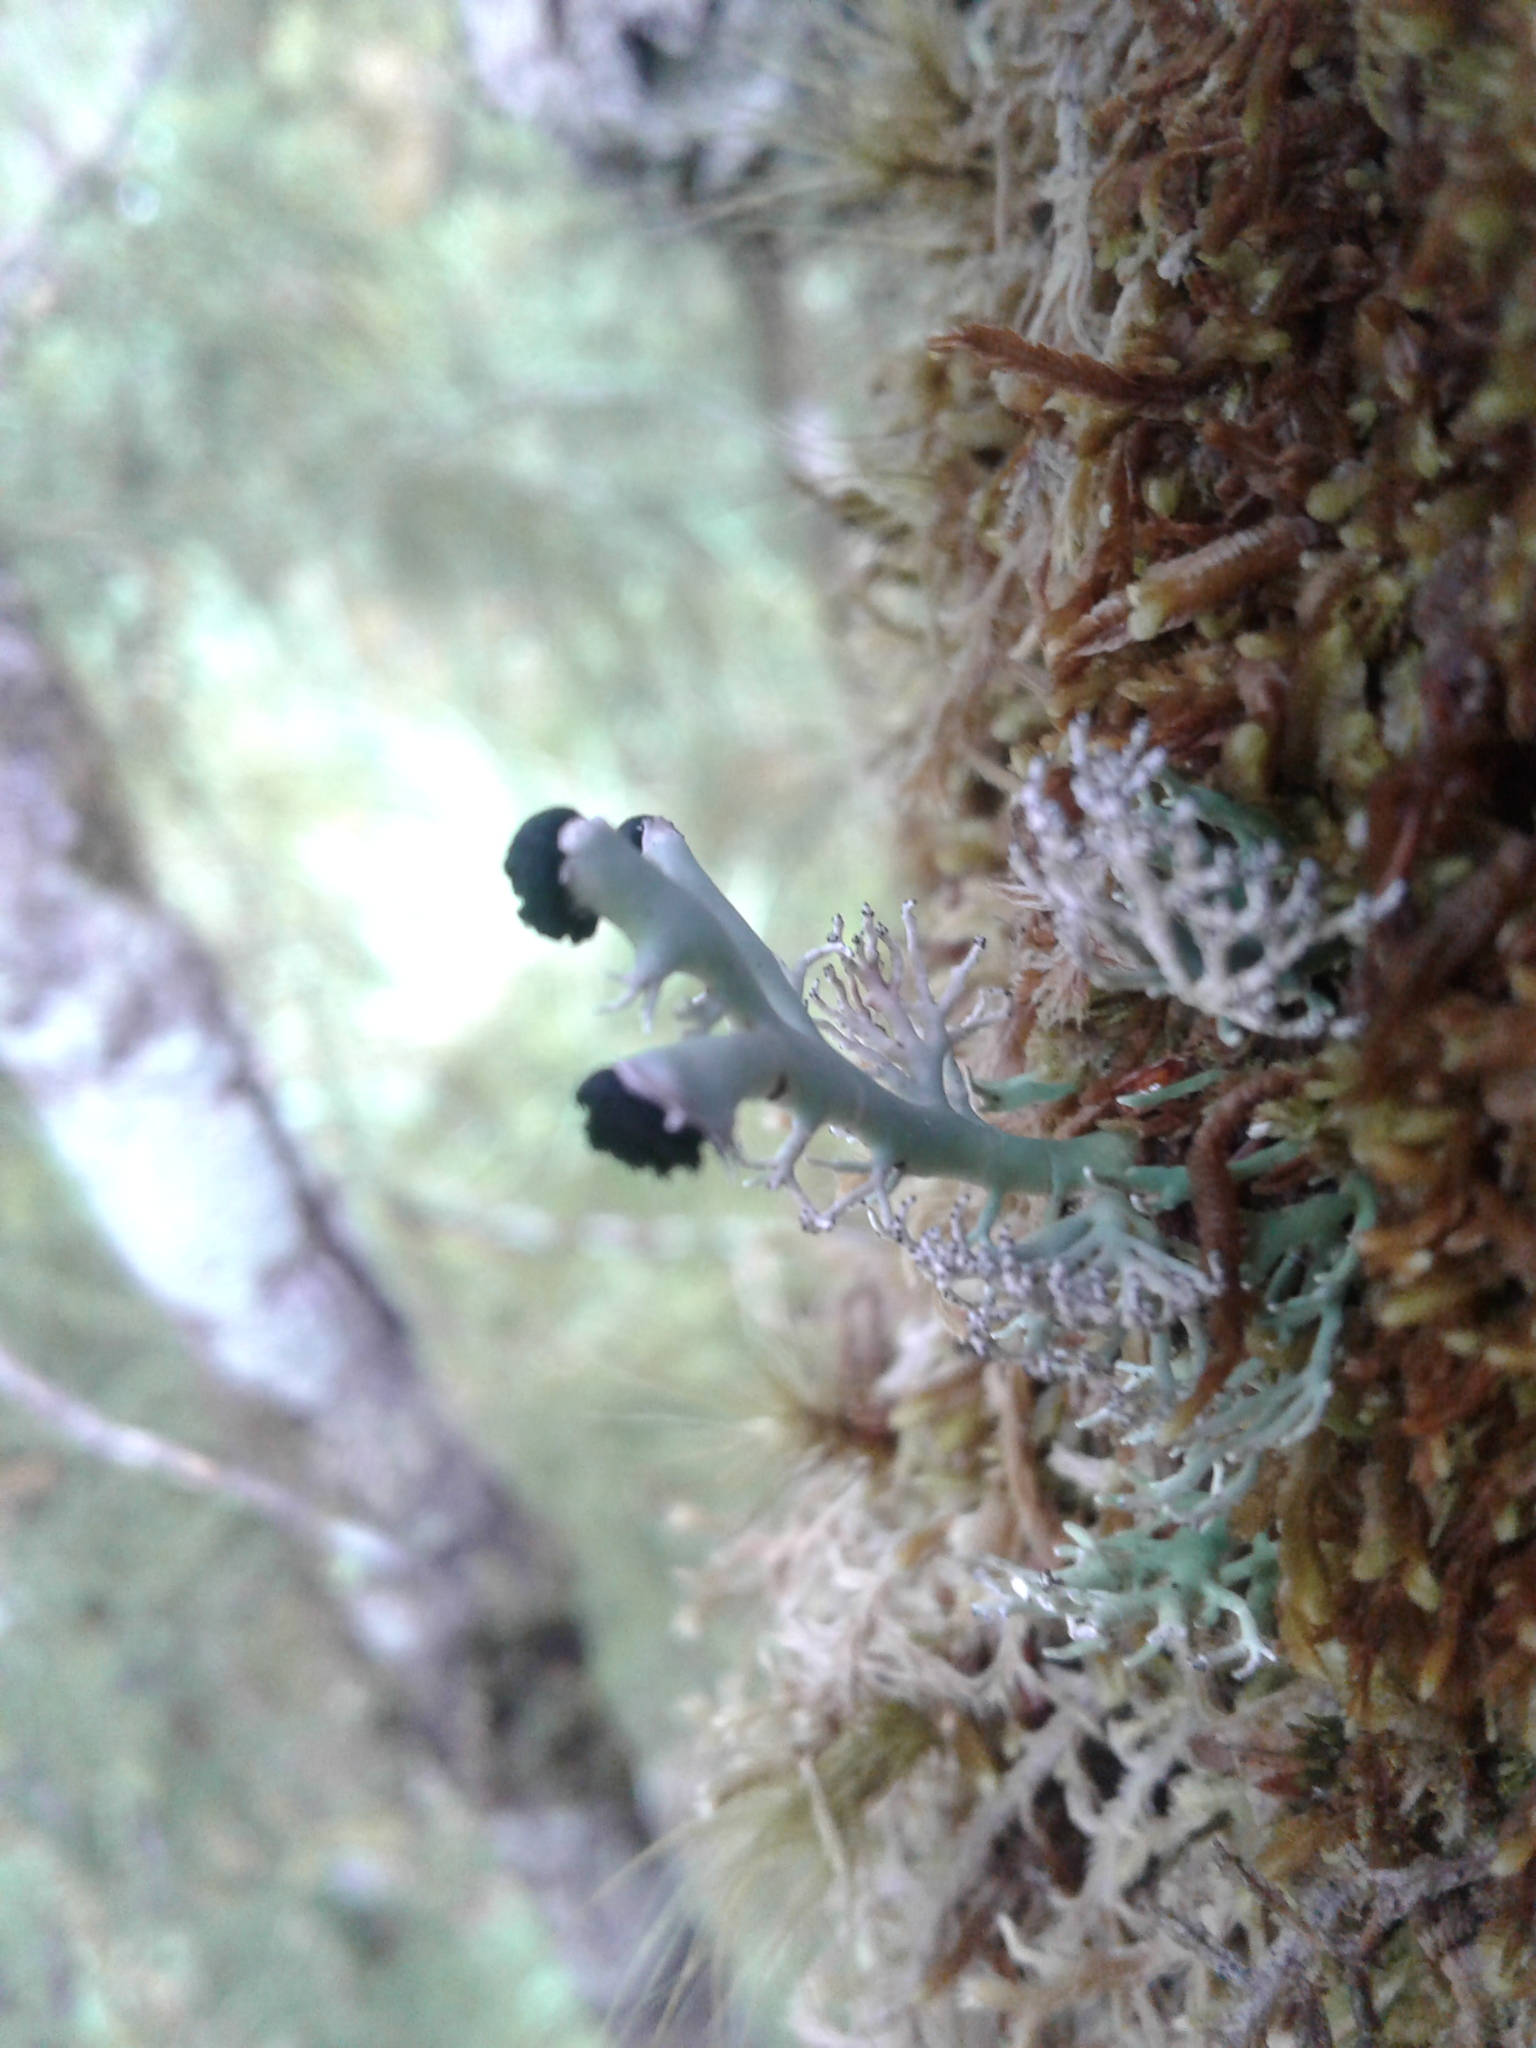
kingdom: Fungi
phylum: Ascomycota
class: Lecanoromycetes
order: Lecanorales
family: Sphaerophoraceae
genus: Bunodophoron
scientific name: Bunodophoron
